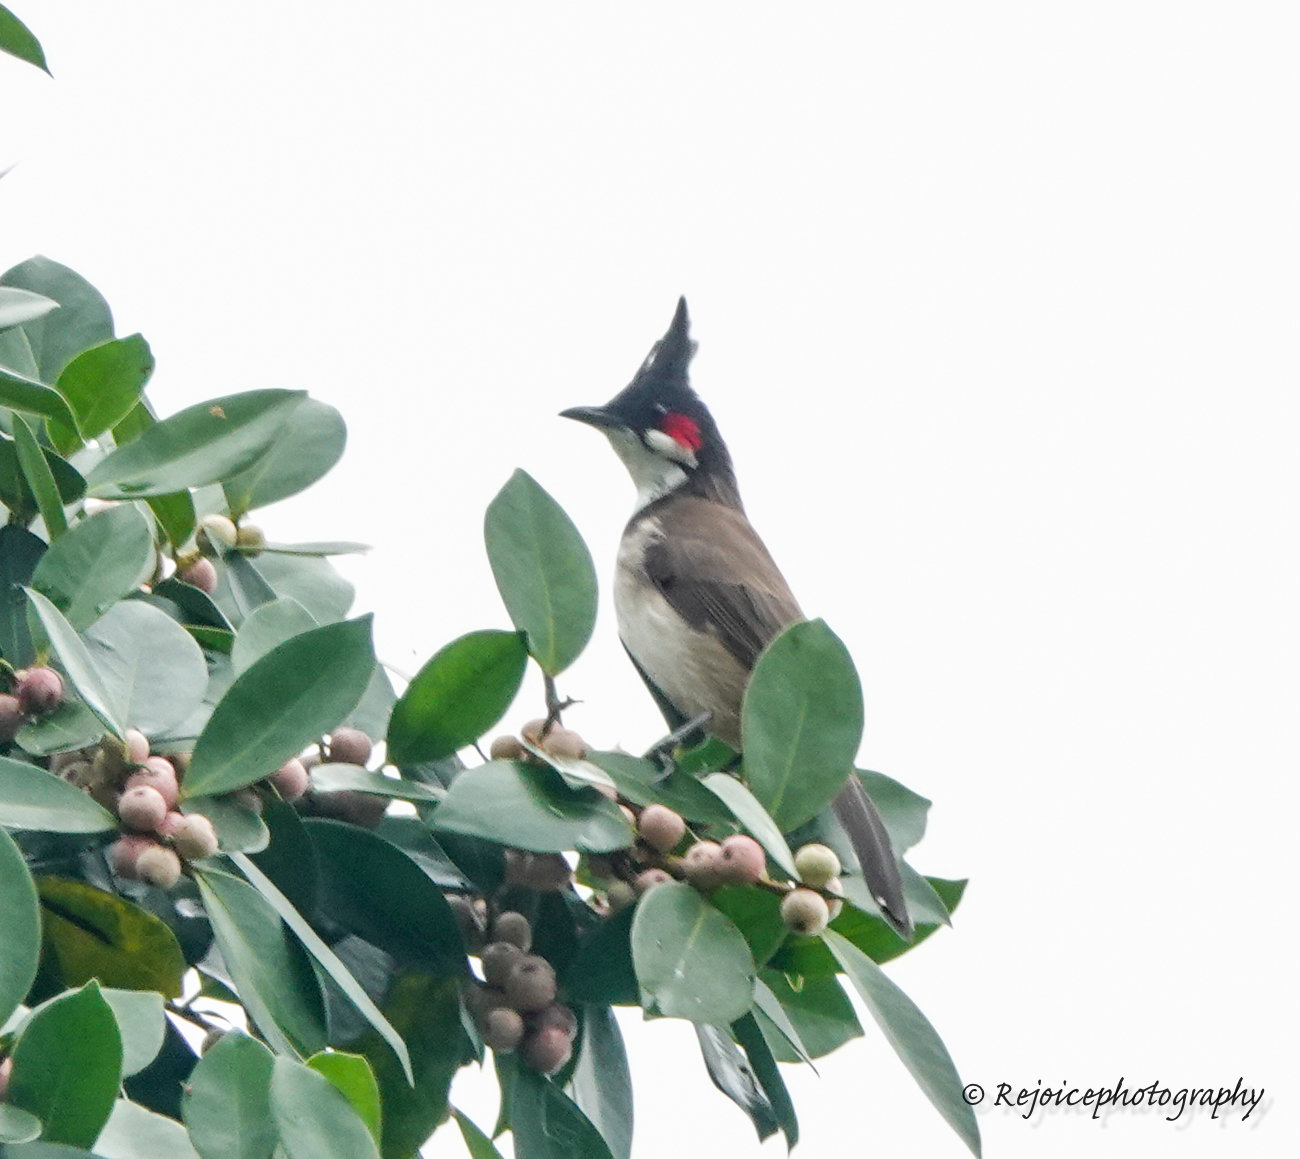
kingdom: Animalia
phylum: Chordata
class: Aves
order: Passeriformes
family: Pycnonotidae
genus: Pycnonotus
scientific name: Pycnonotus jocosus
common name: Red-whiskered bulbul
